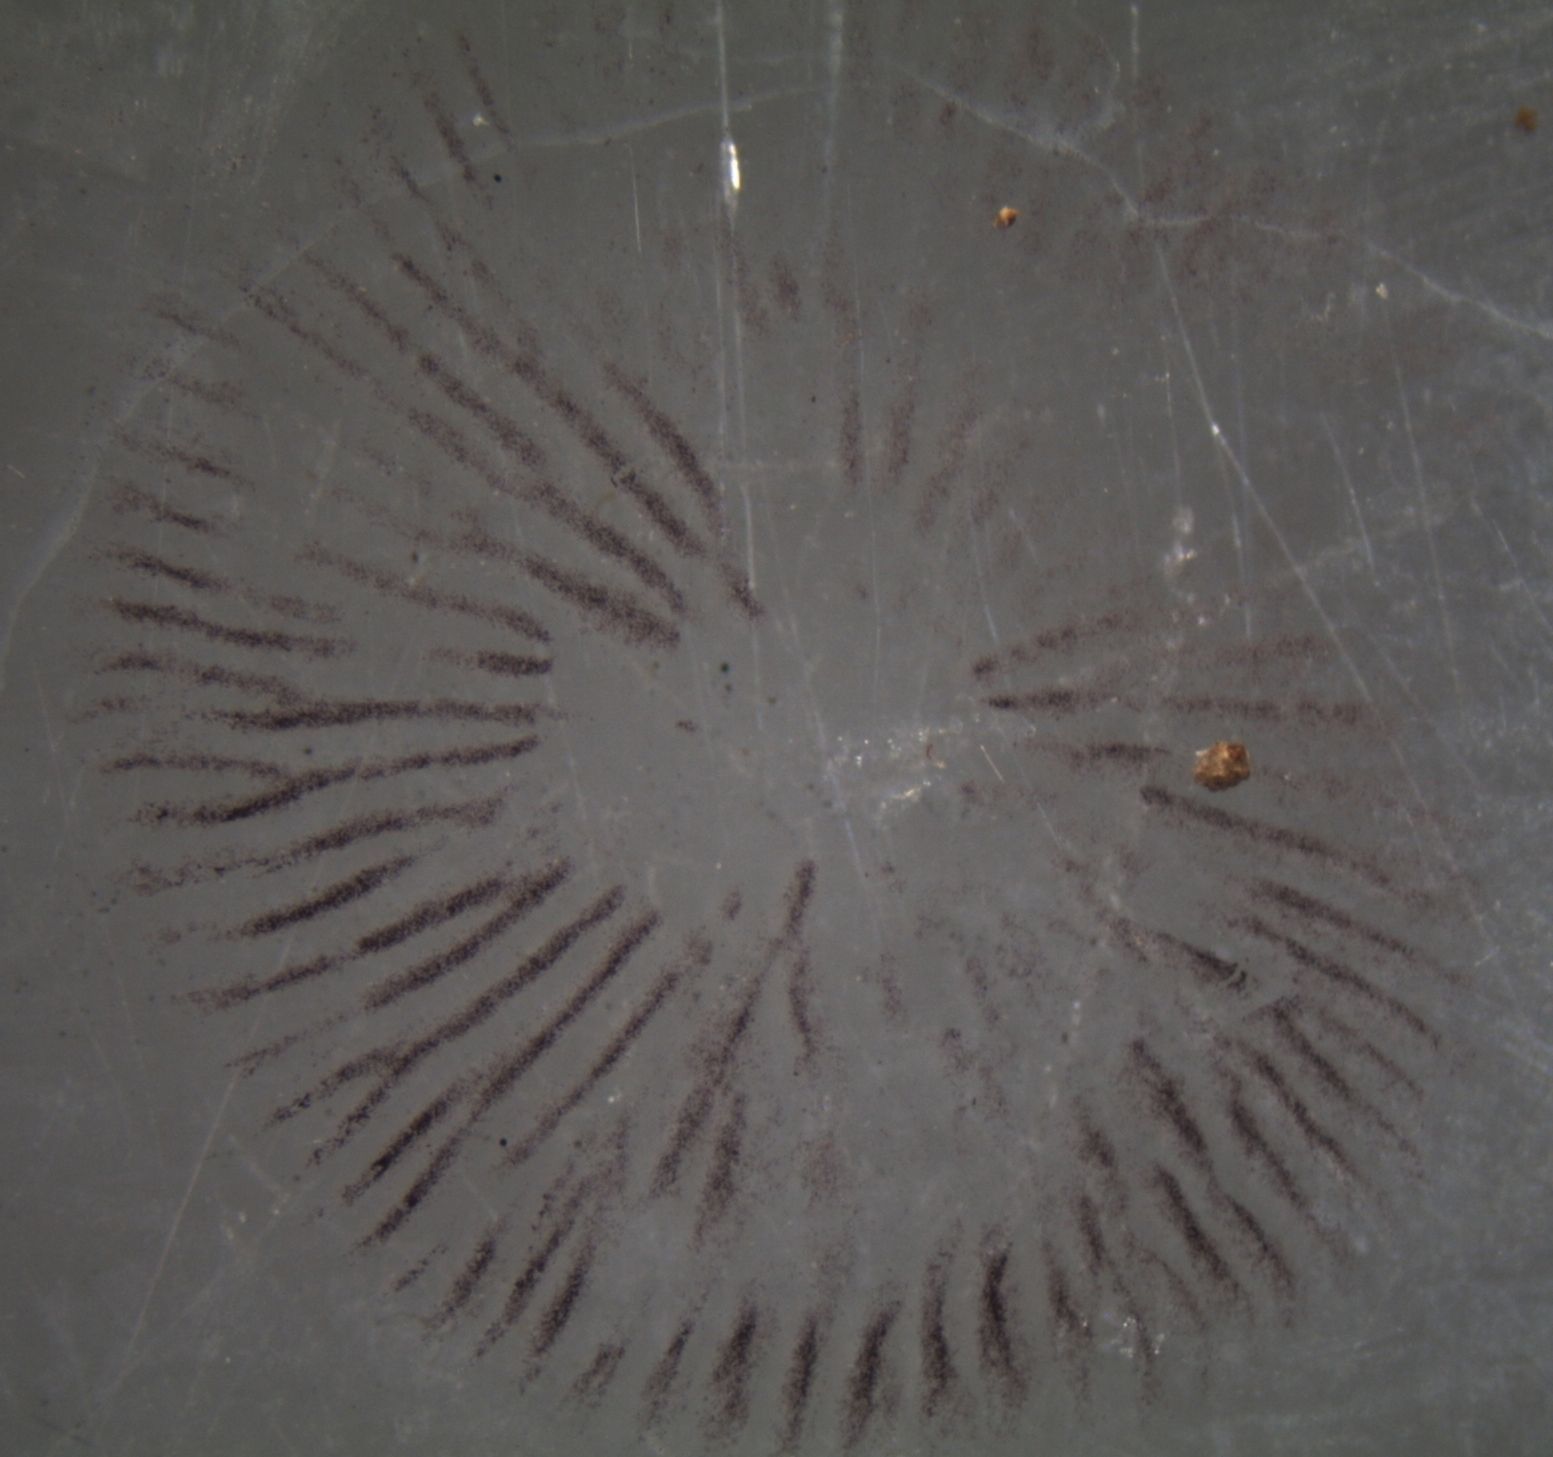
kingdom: Fungi
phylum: Basidiomycota
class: Agaricomycetes
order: Agaricales
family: Strophariaceae
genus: Agrocybe
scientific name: Agrocybe pediades
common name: Common fieldcap
